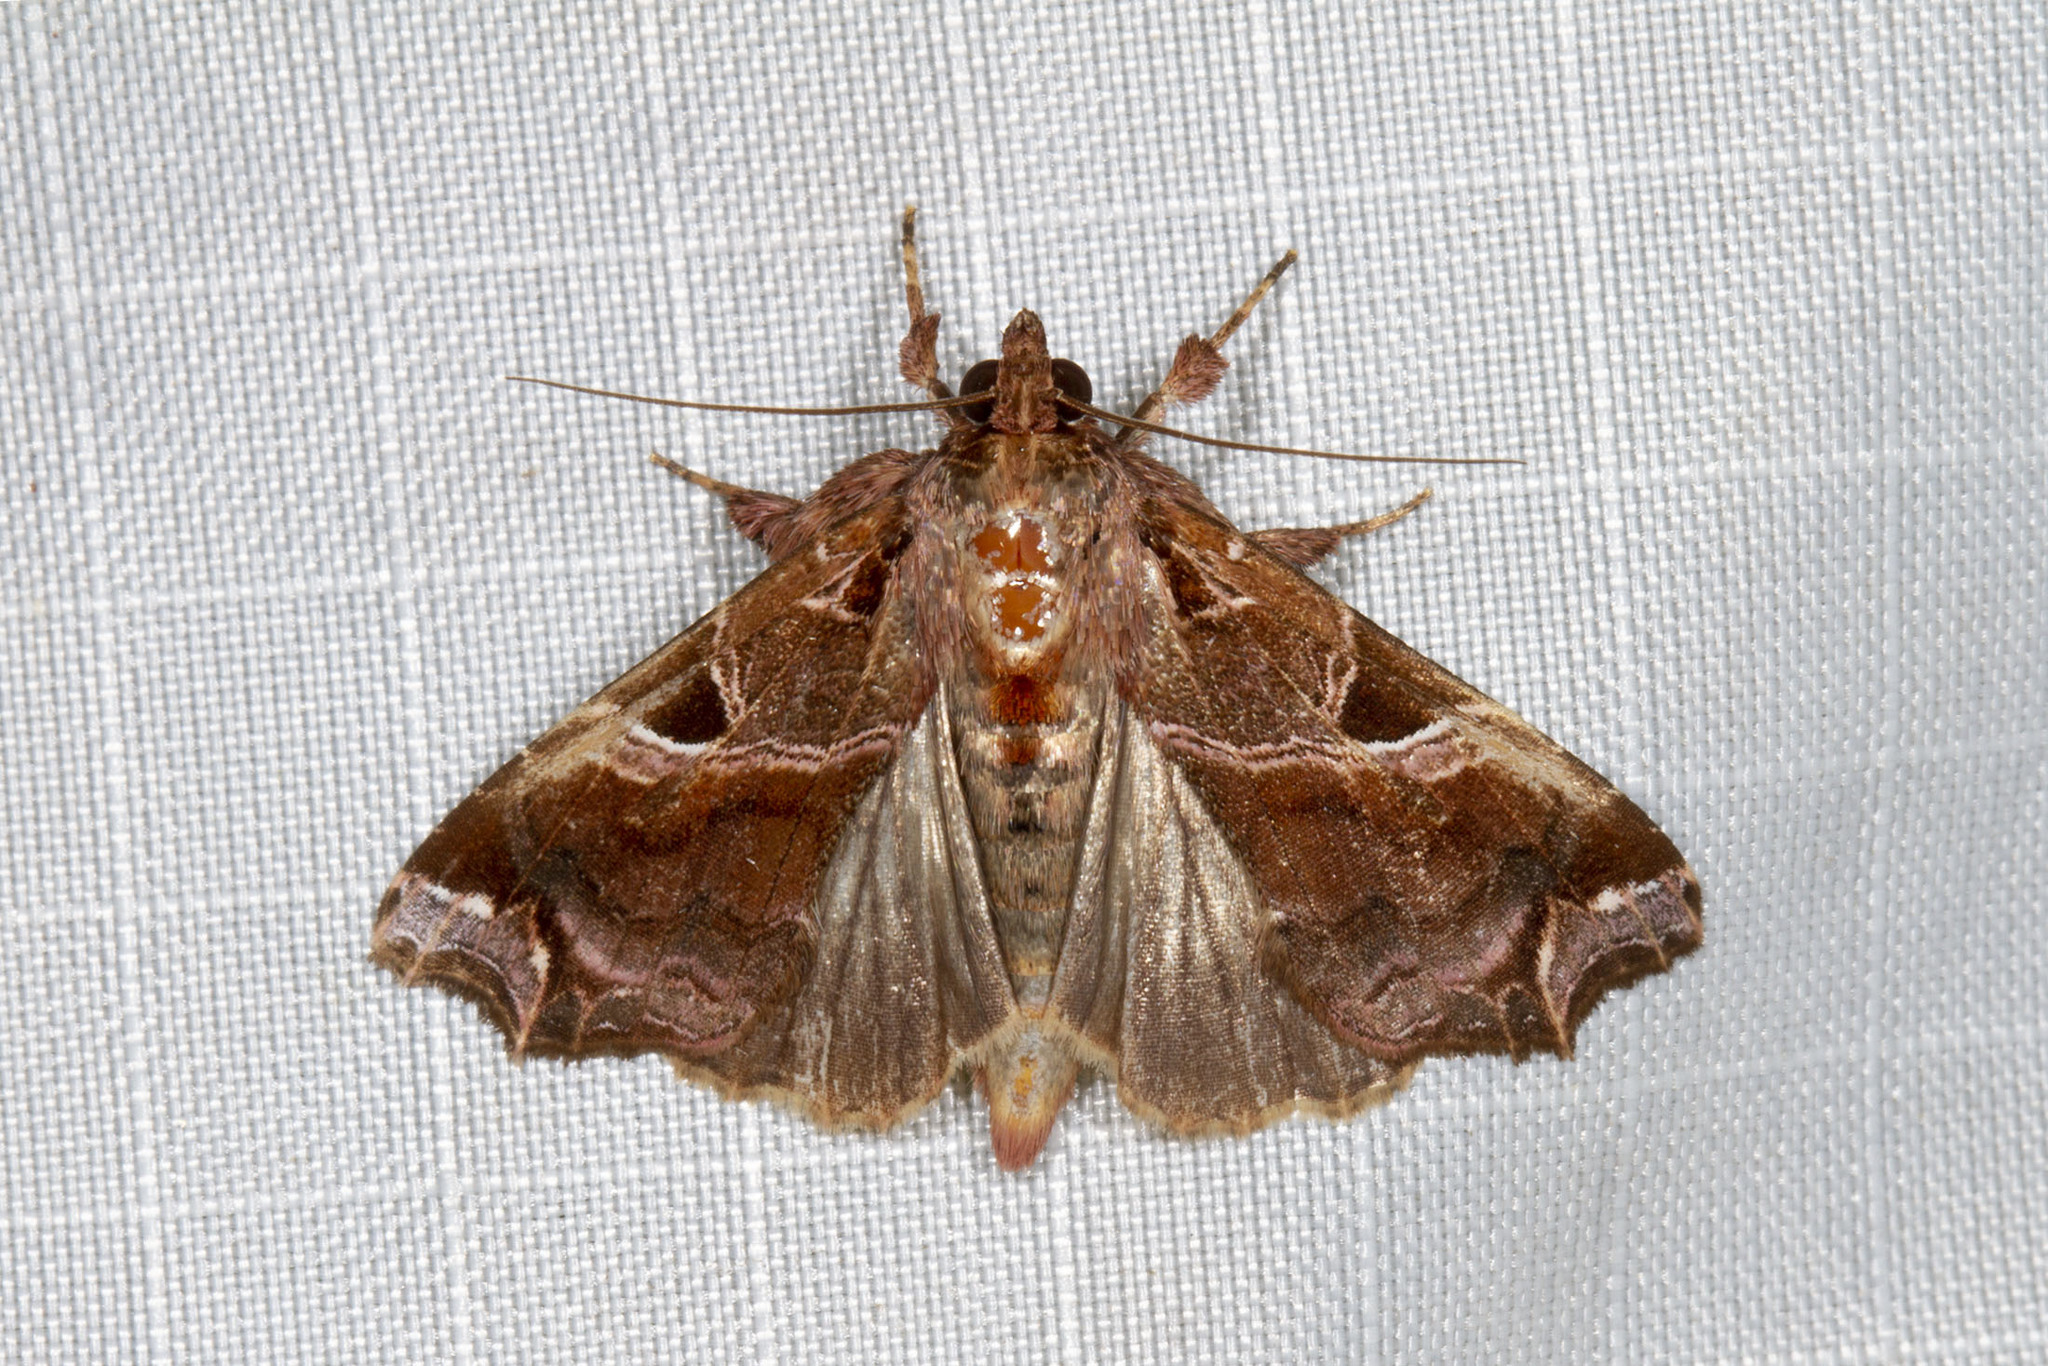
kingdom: Animalia
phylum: Arthropoda
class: Insecta
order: Lepidoptera
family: Noctuidae
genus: Callopistria
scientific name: Callopistria floridensis
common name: Florida fern moth
